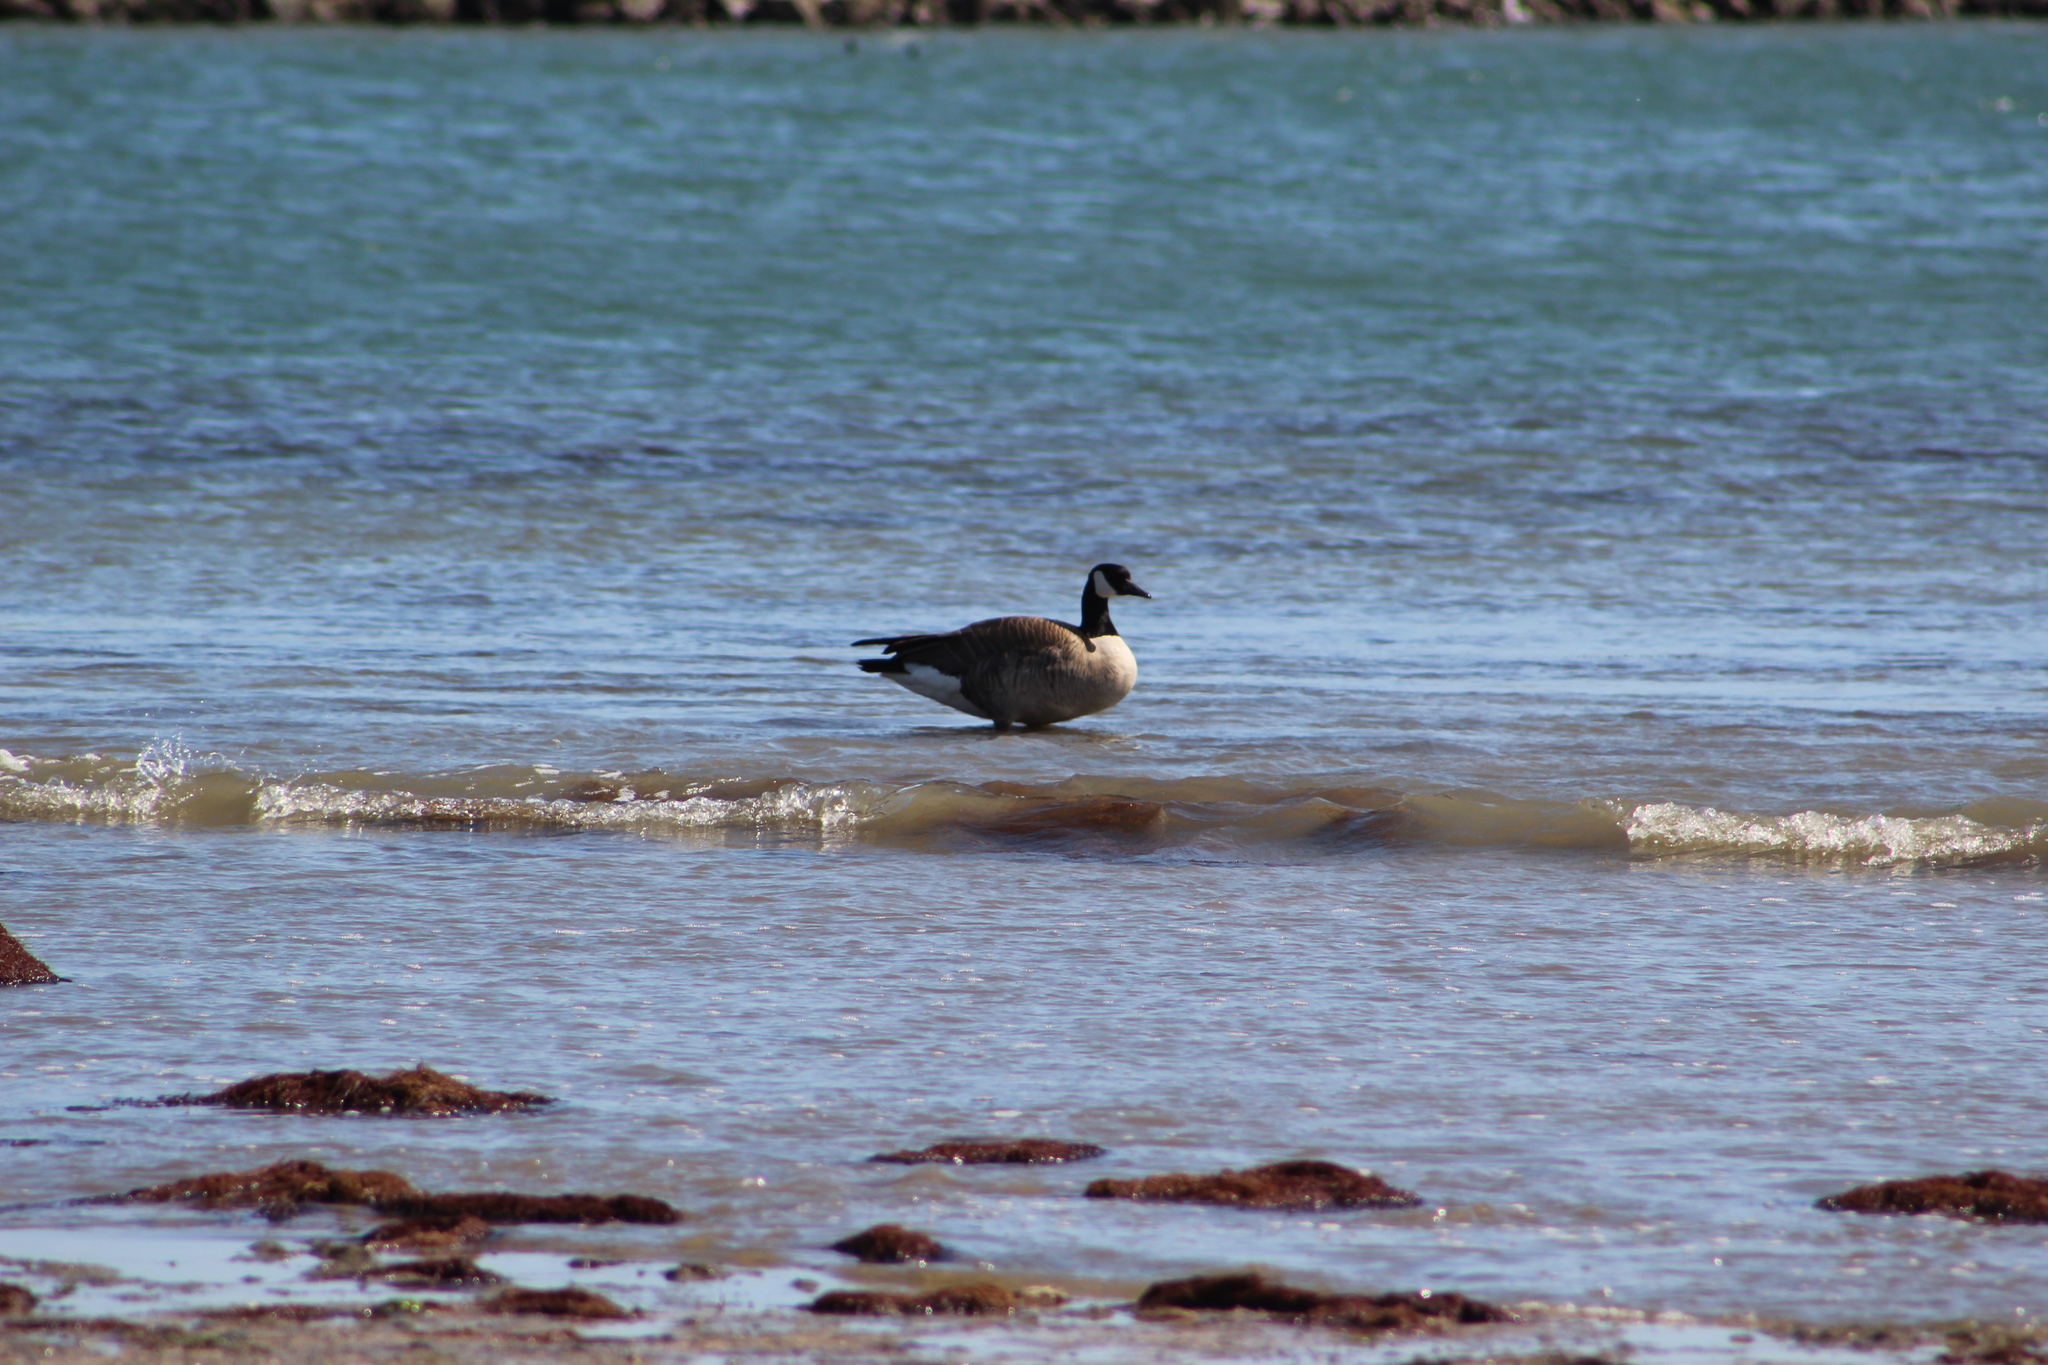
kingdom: Animalia
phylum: Chordata
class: Aves
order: Anseriformes
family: Anatidae
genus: Branta
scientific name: Branta canadensis
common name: Canada goose
